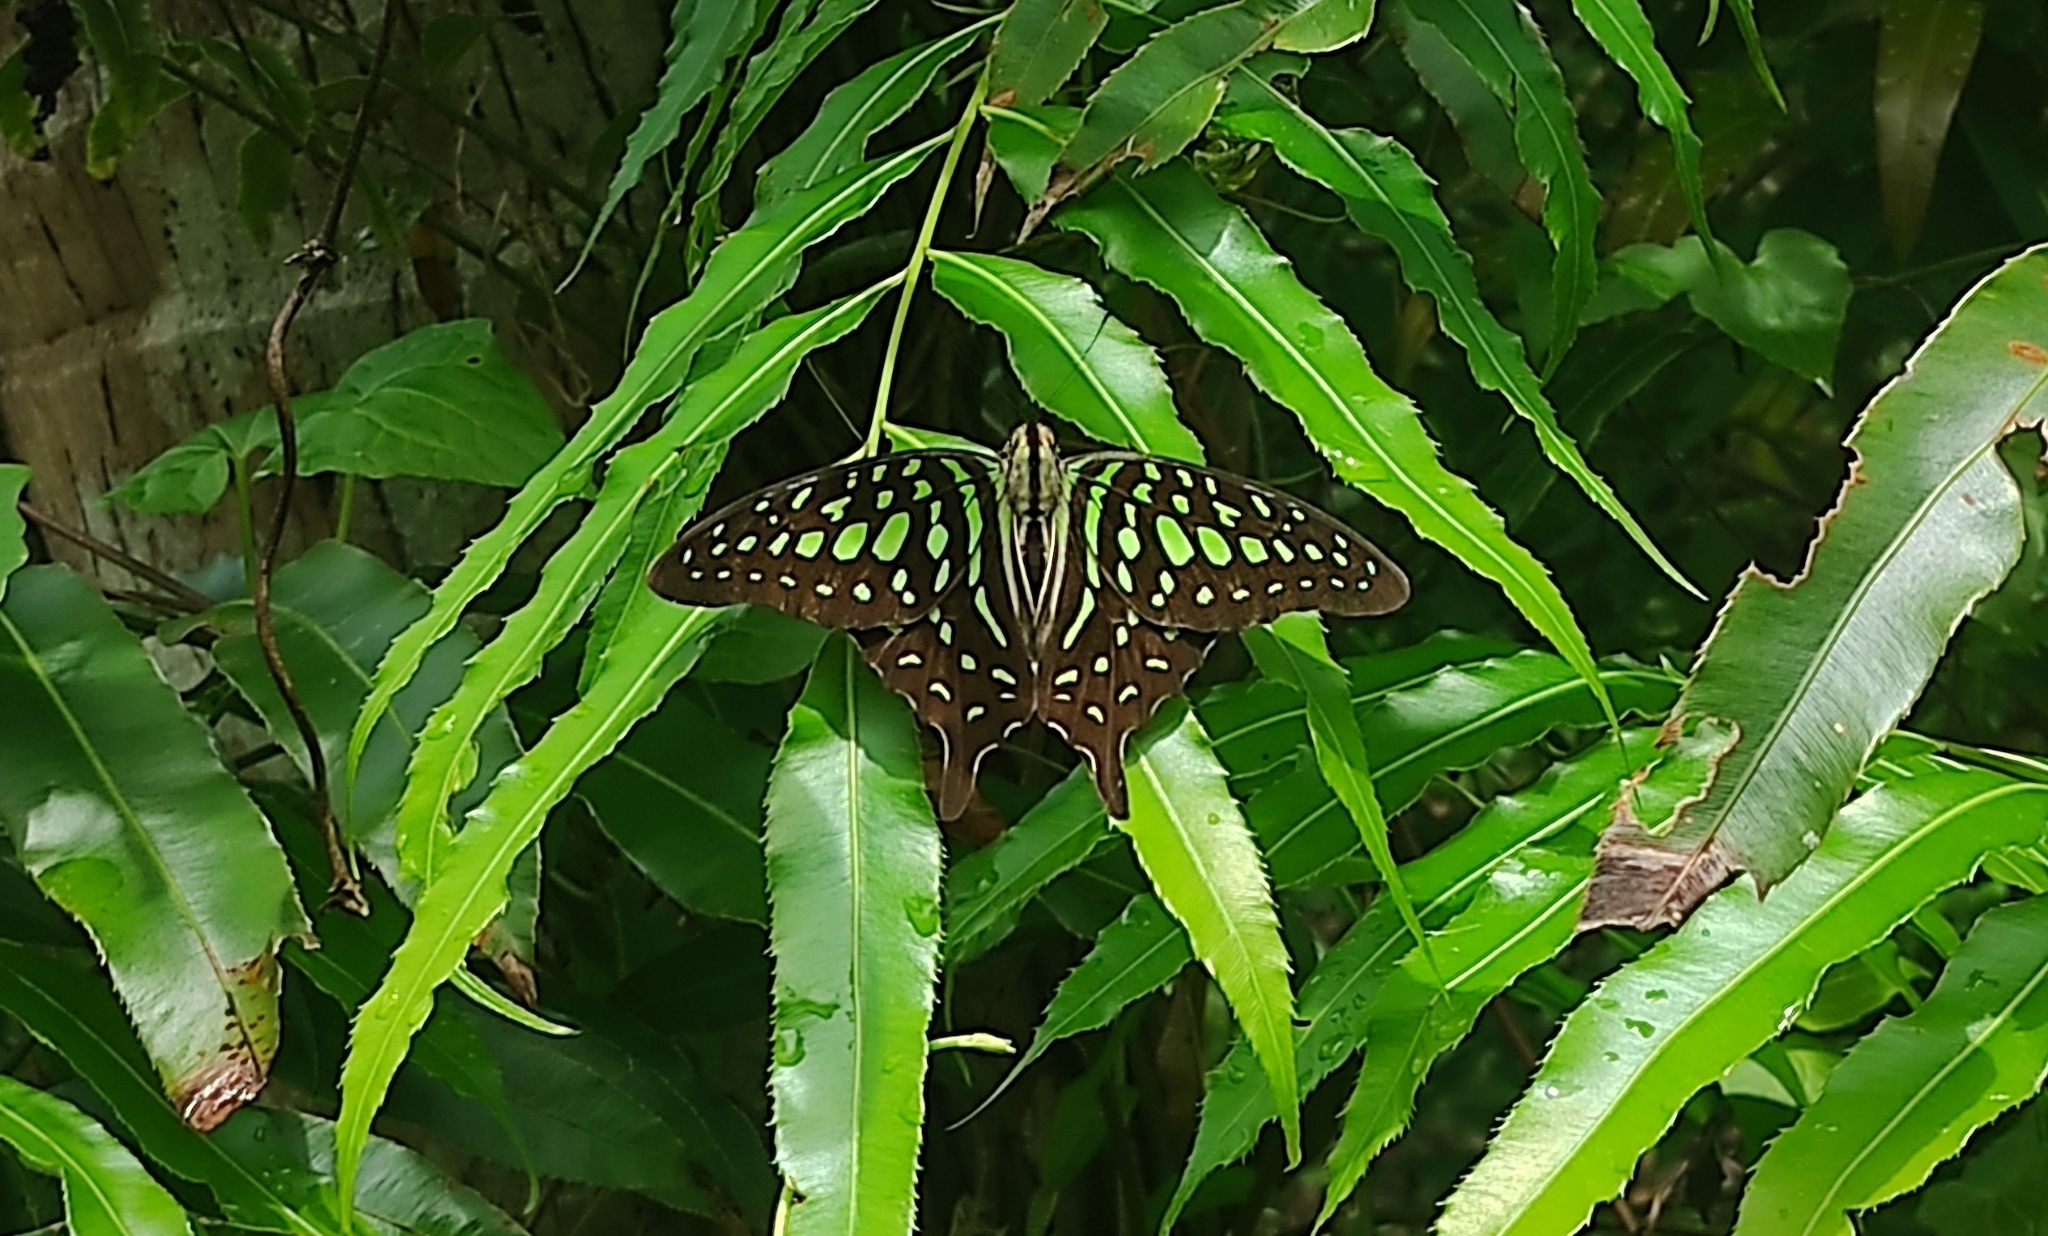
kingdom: Animalia
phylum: Arthropoda
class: Insecta
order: Lepidoptera
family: Papilionidae
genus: Graphium
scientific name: Graphium agamemnon
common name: Tailed jay
